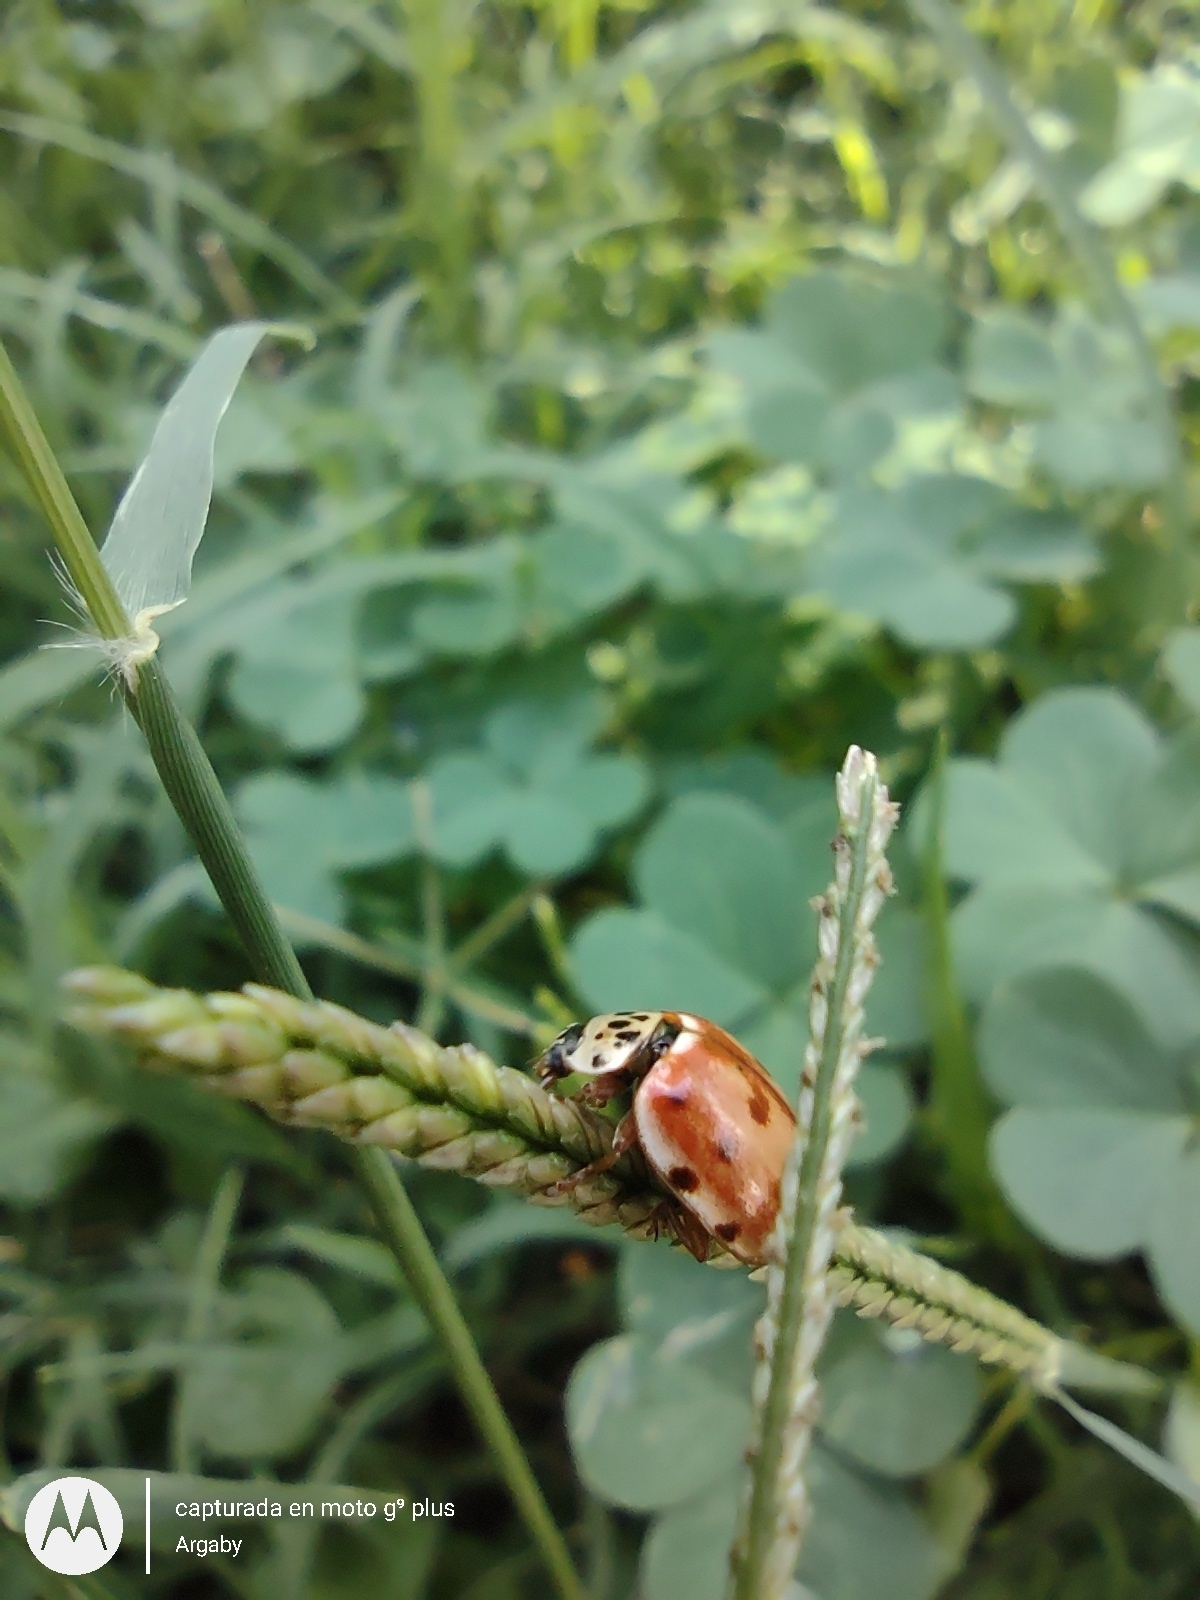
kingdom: Animalia
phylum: Arthropoda
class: Insecta
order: Coleoptera
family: Coccinellidae
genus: Harmonia
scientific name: Harmonia quadripunctata
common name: Cream-streaked ladybird
